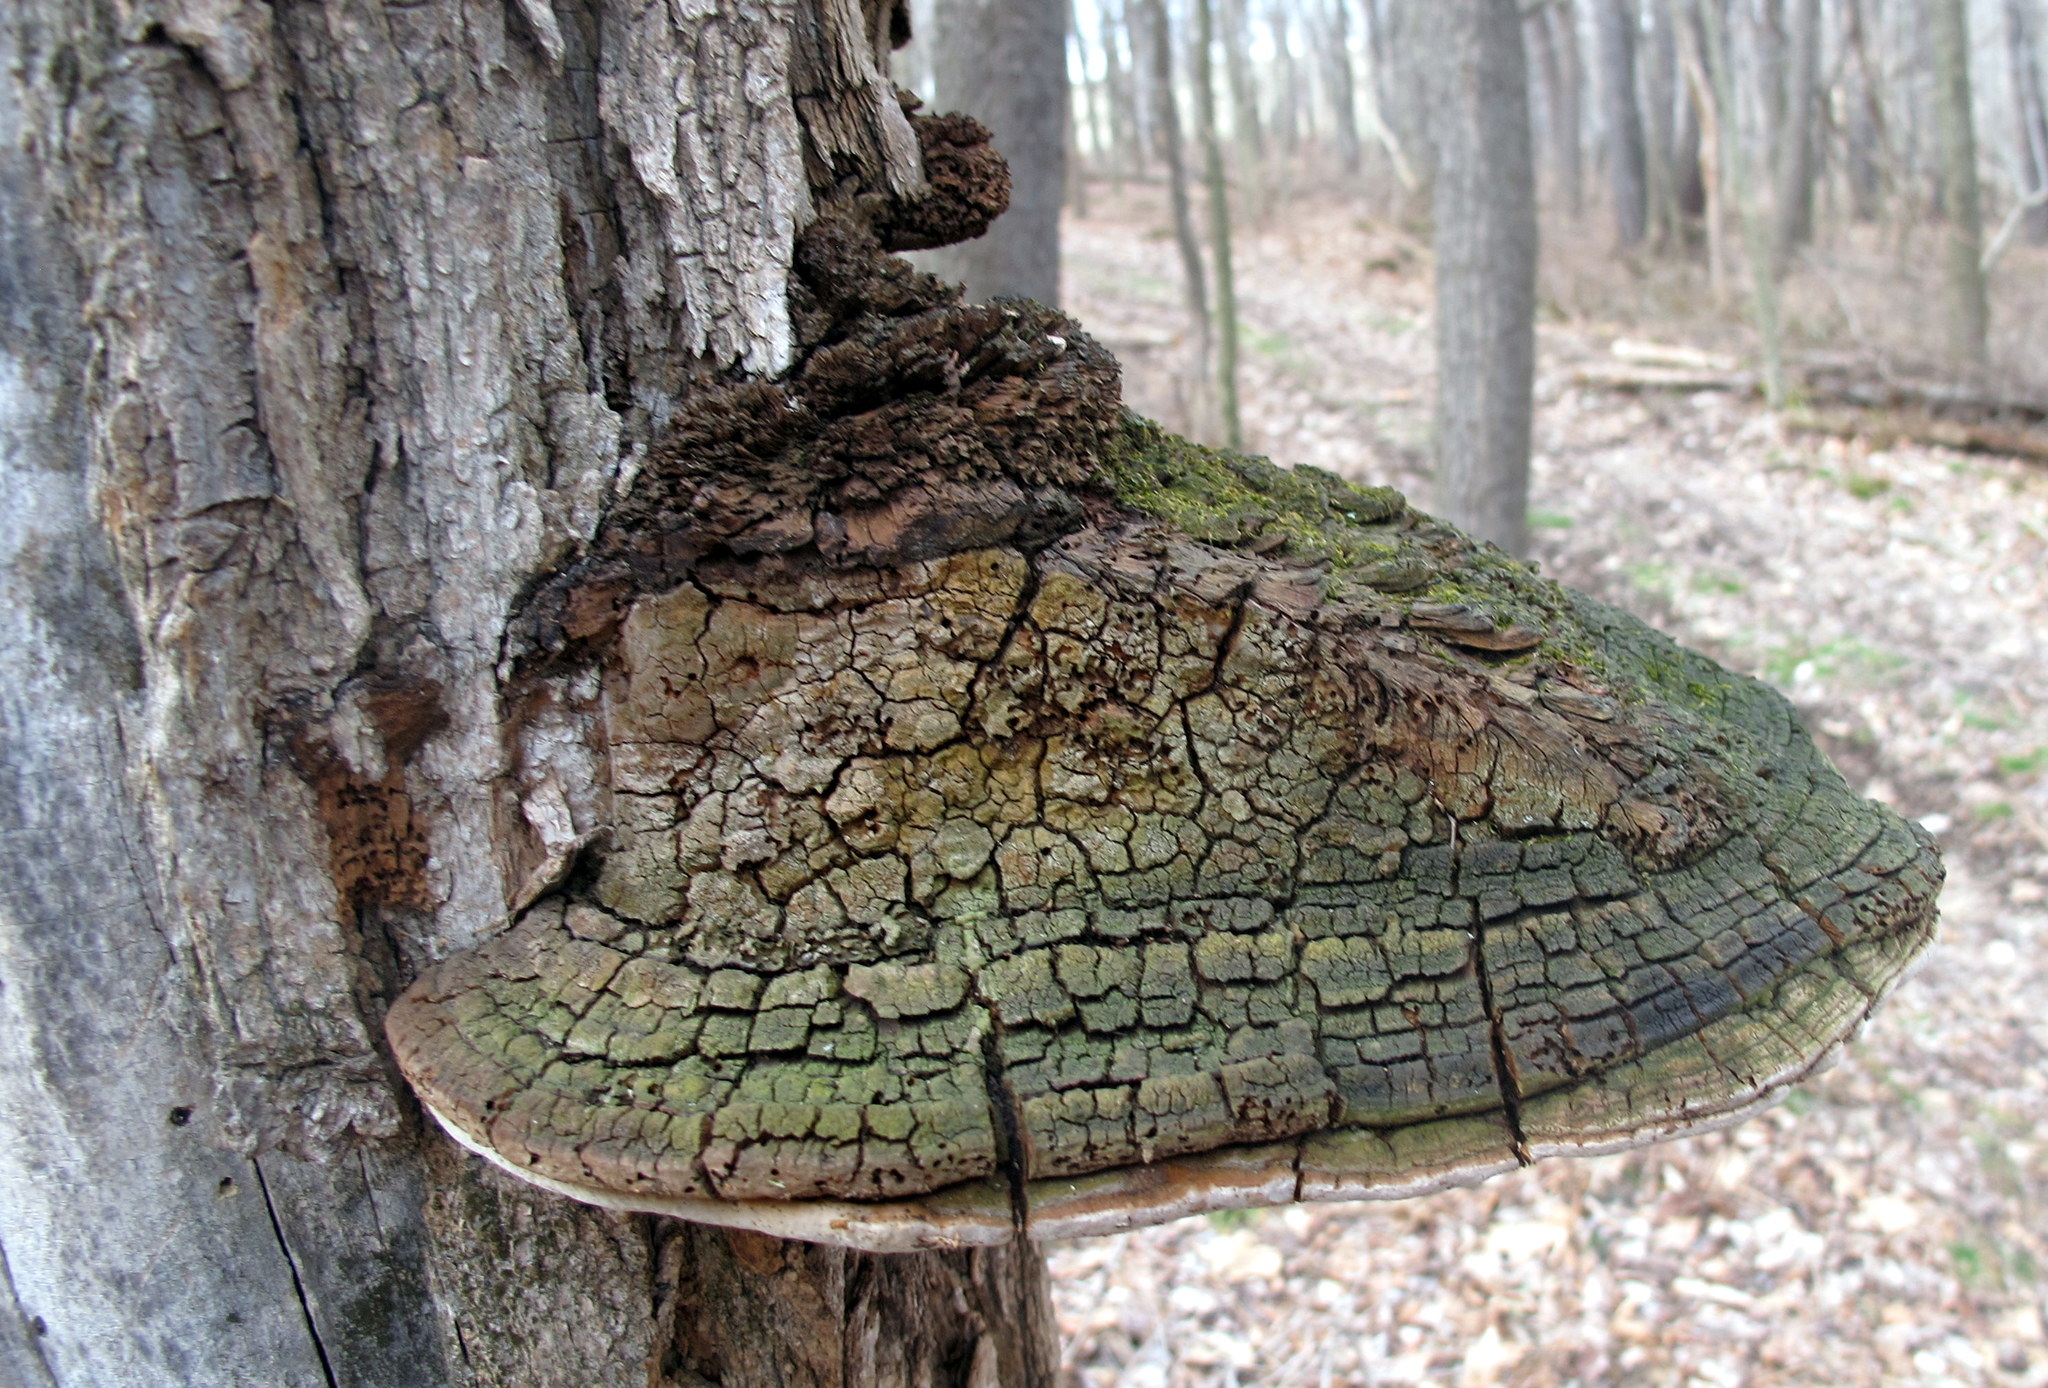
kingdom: Fungi
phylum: Basidiomycota
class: Agaricomycetes
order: Hymenochaetales
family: Hymenochaetaceae
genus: Phellinus
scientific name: Phellinus robiniae
